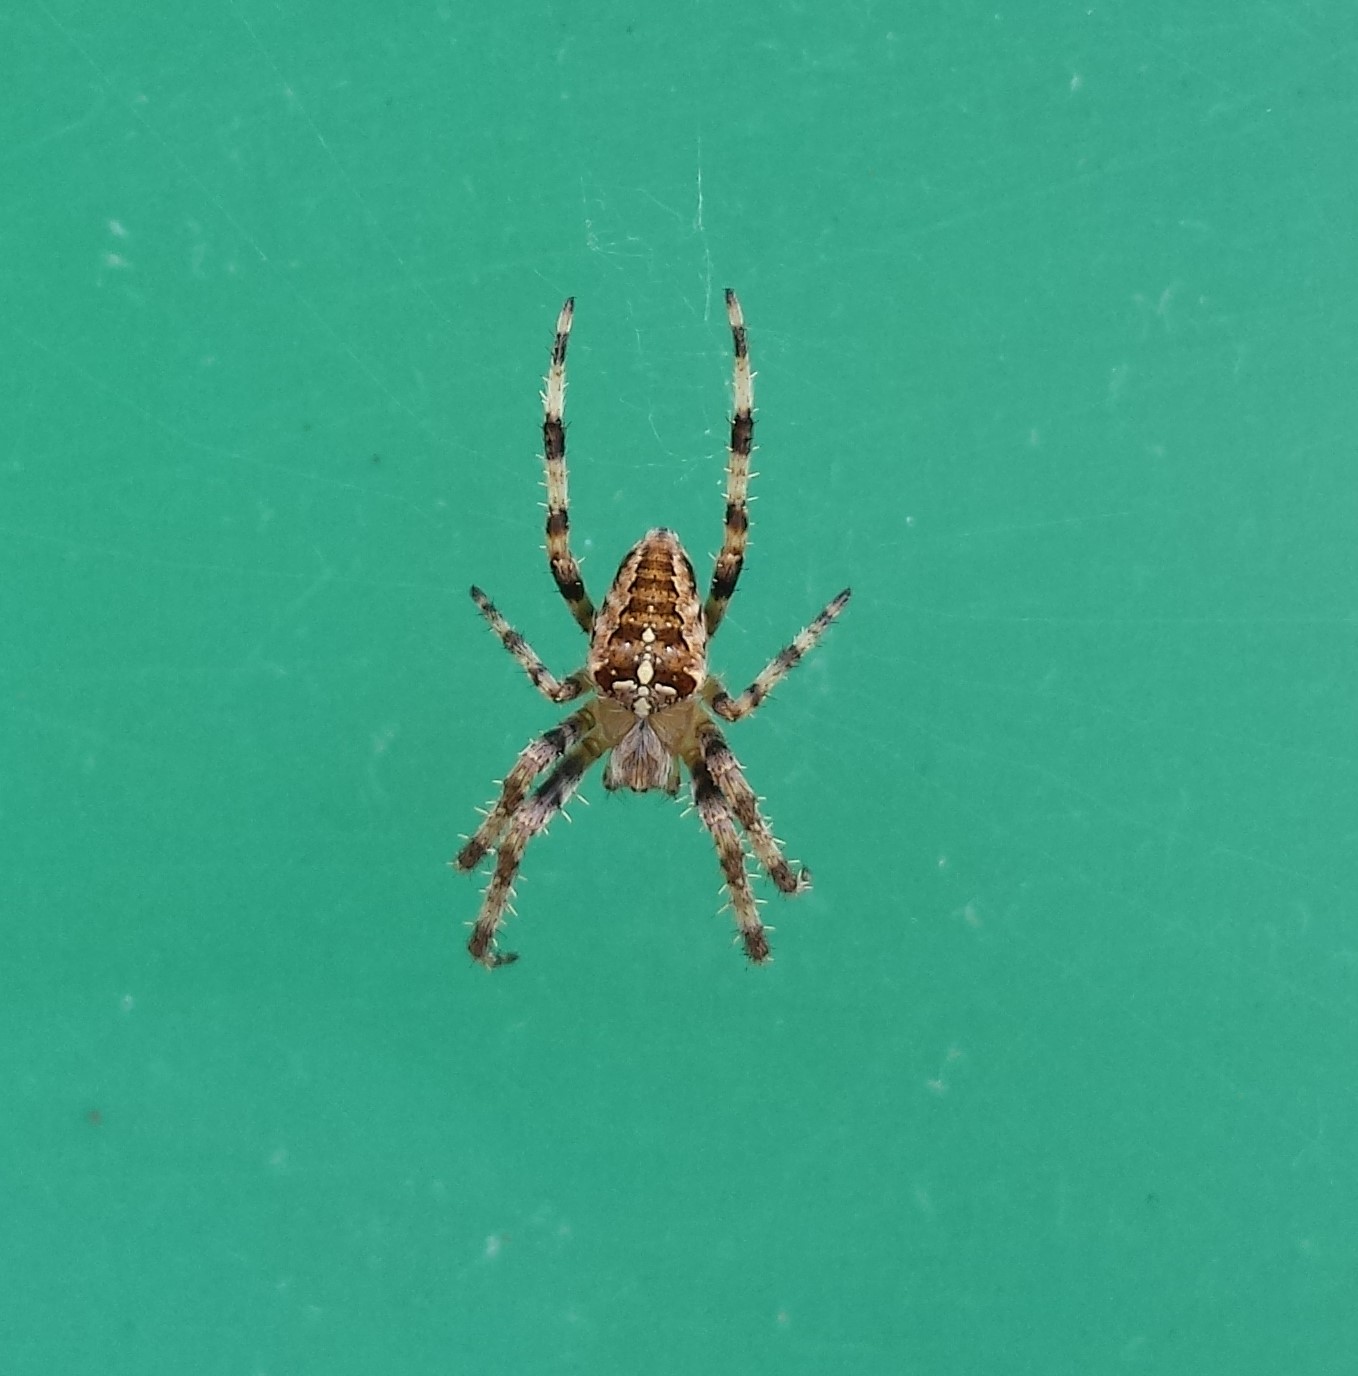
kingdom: Animalia
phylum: Arthropoda
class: Arachnida
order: Araneae
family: Araneidae
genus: Araneus
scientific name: Araneus diadematus
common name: Cross orbweaver
